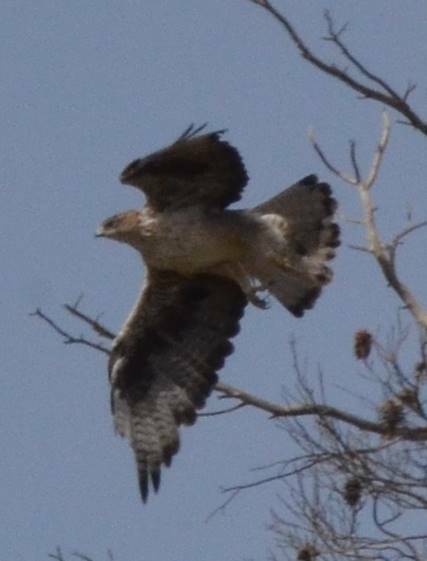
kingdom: Animalia
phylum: Chordata
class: Aves
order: Accipitriformes
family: Accipitridae
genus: Aquila
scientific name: Aquila fasciata
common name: Bonelli's eagle
